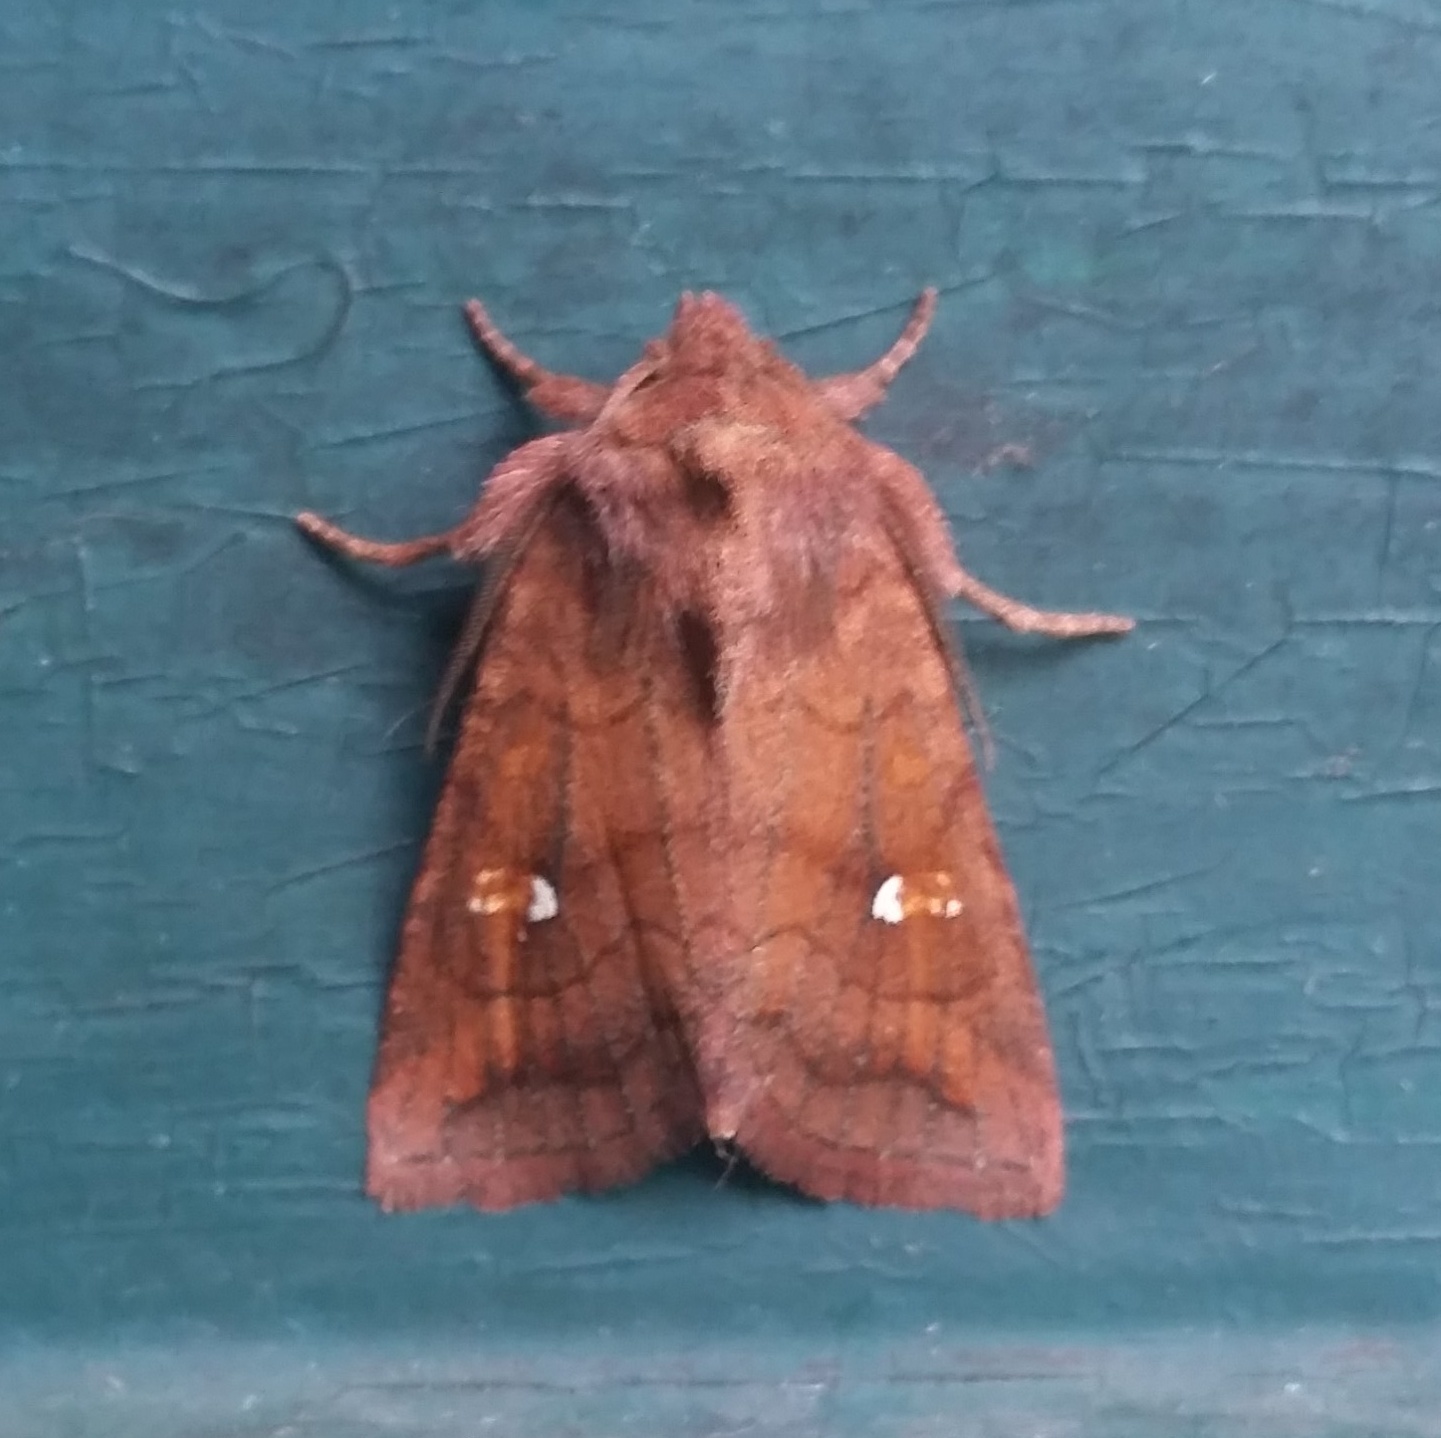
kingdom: Animalia
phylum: Arthropoda
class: Insecta
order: Lepidoptera
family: Noctuidae
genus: Tricholita
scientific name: Tricholita signata
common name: Signate quaker
